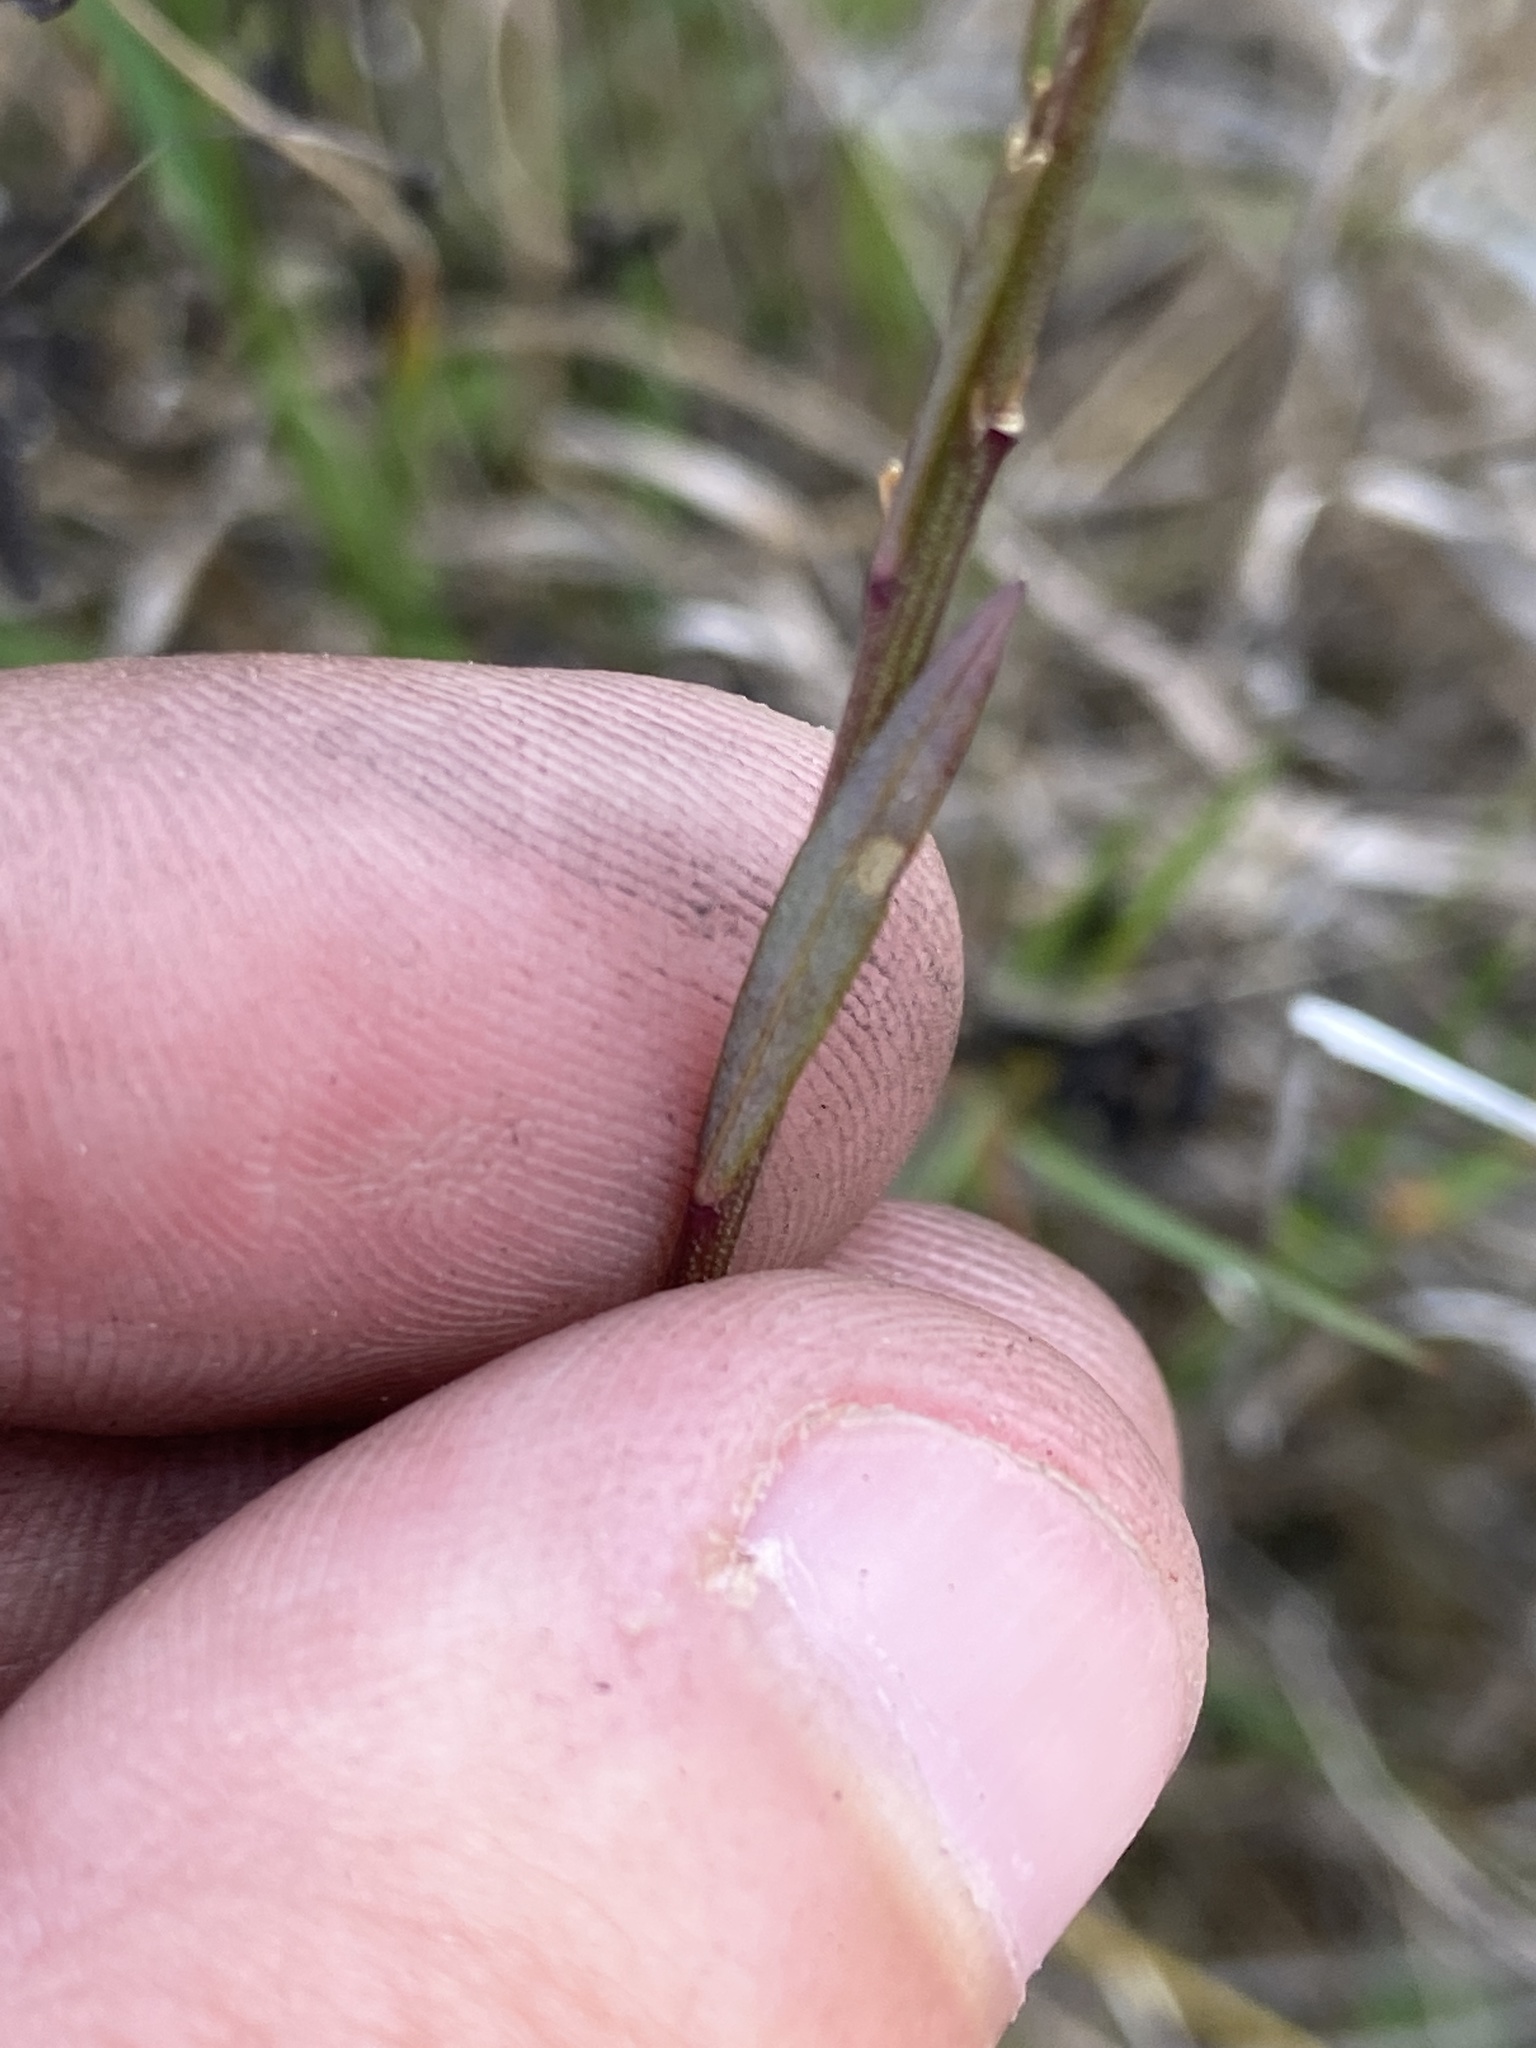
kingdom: Plantae
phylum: Tracheophyta
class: Magnoliopsida
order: Malpighiales
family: Linaceae
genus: Linum
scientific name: Linum medium
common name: Stiff yellow flax
